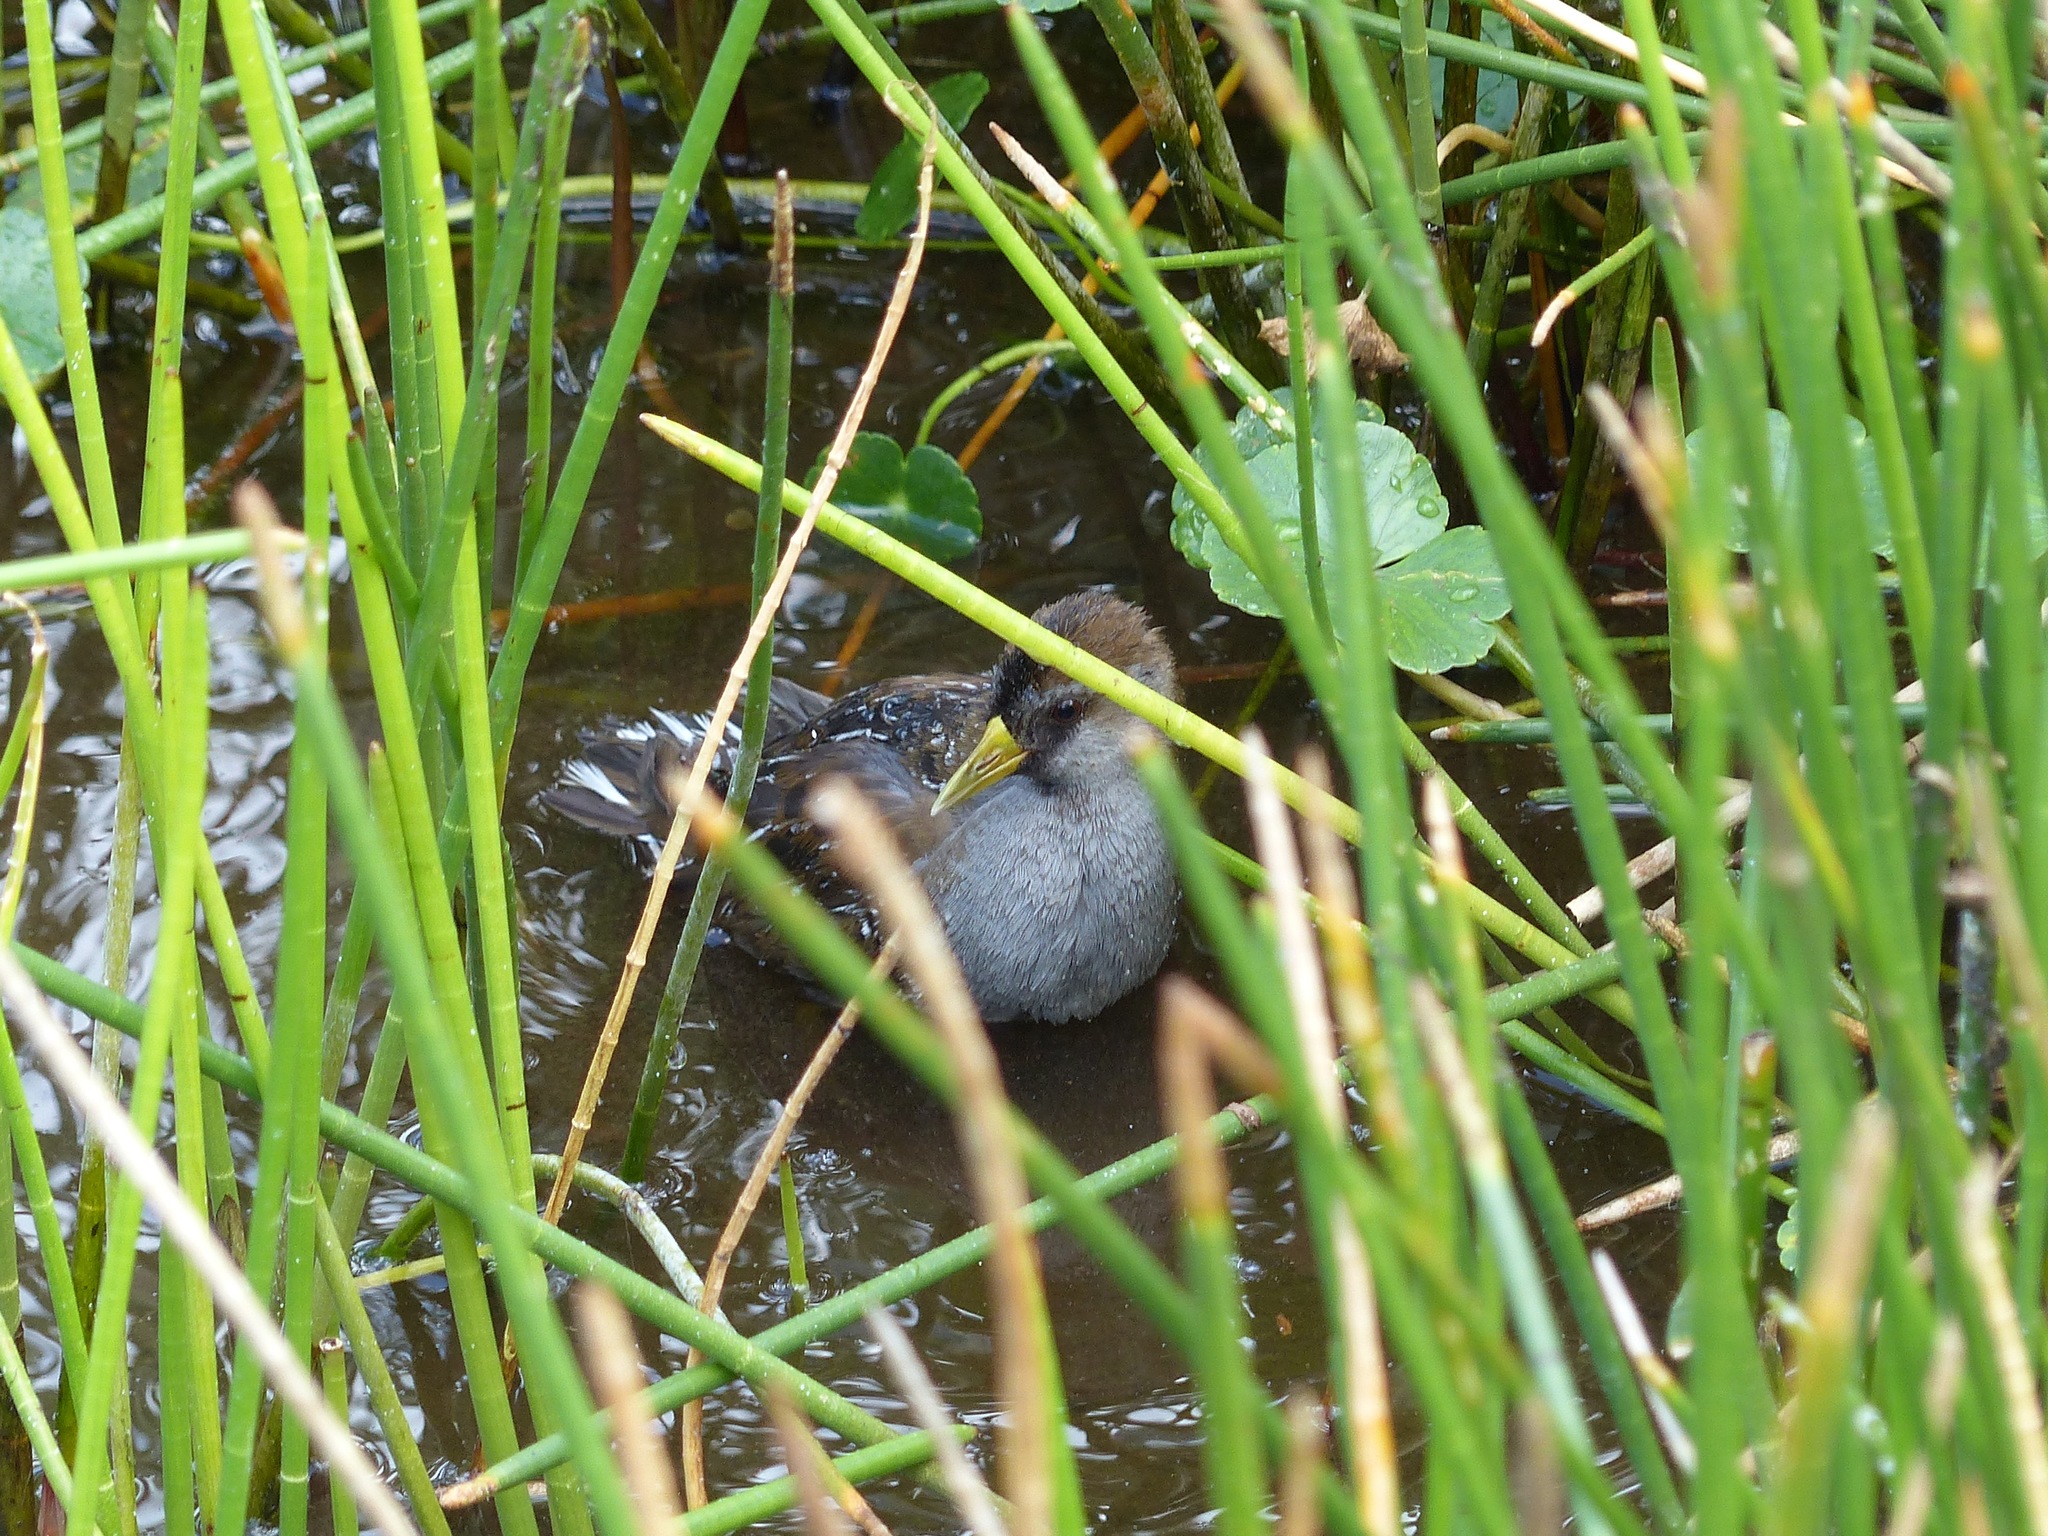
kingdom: Animalia
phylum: Chordata
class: Aves
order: Gruiformes
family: Rallidae
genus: Porzana
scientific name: Porzana carolina
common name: Sora
